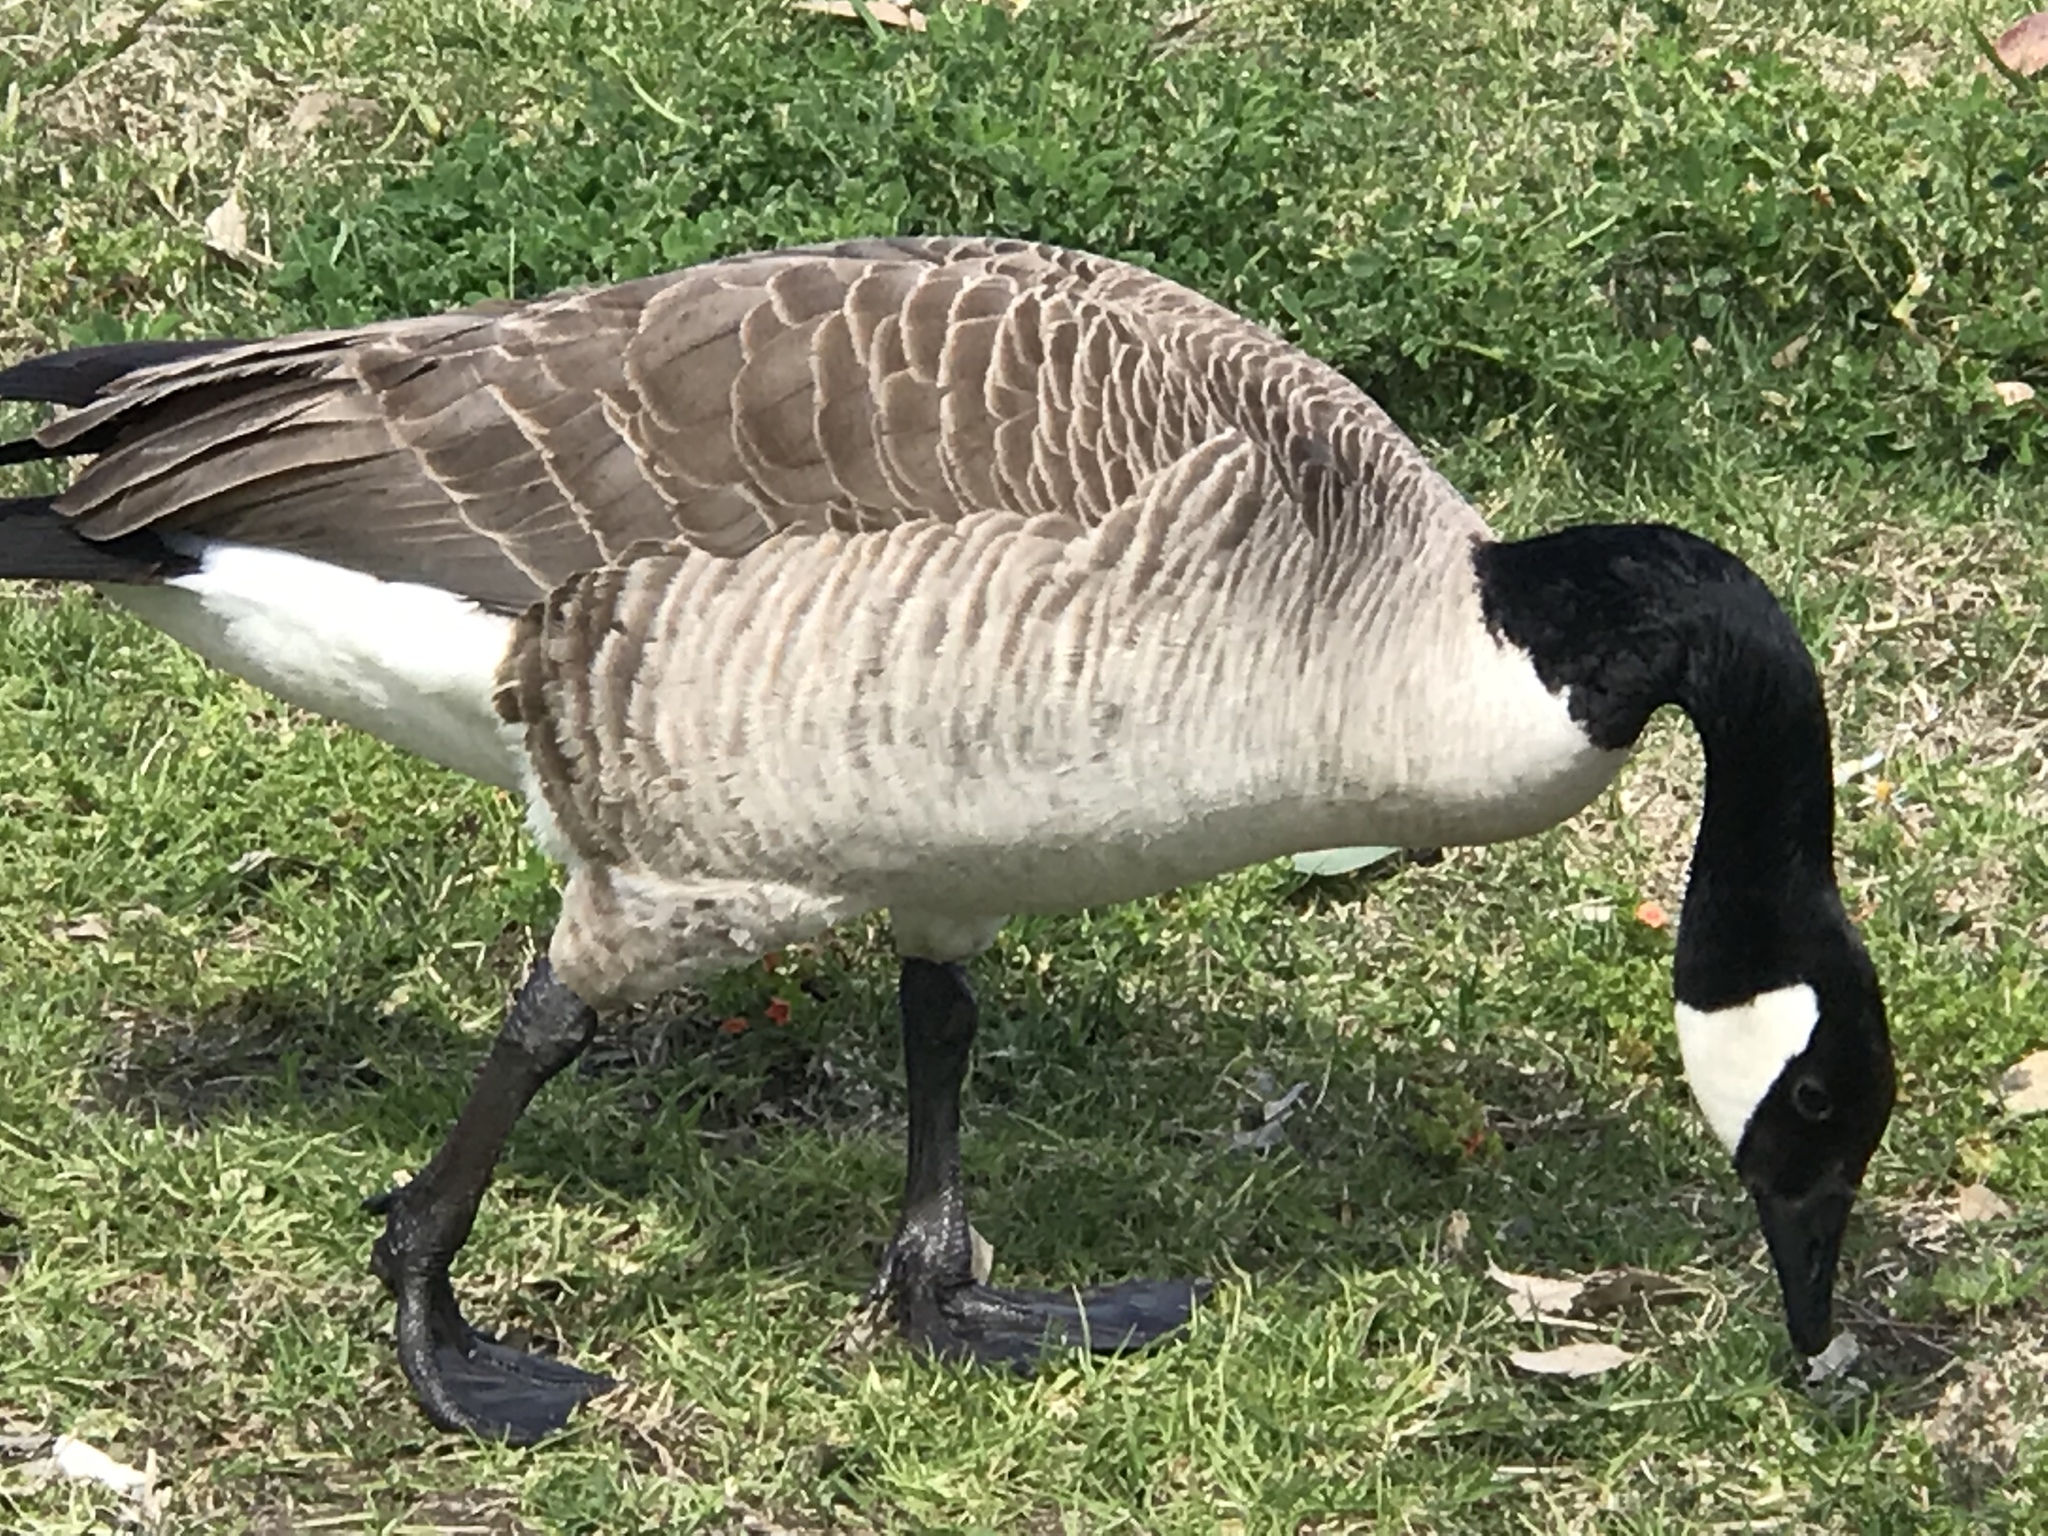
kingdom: Animalia
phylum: Chordata
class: Aves
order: Anseriformes
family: Anatidae
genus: Branta
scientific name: Branta canadensis
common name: Canada goose
